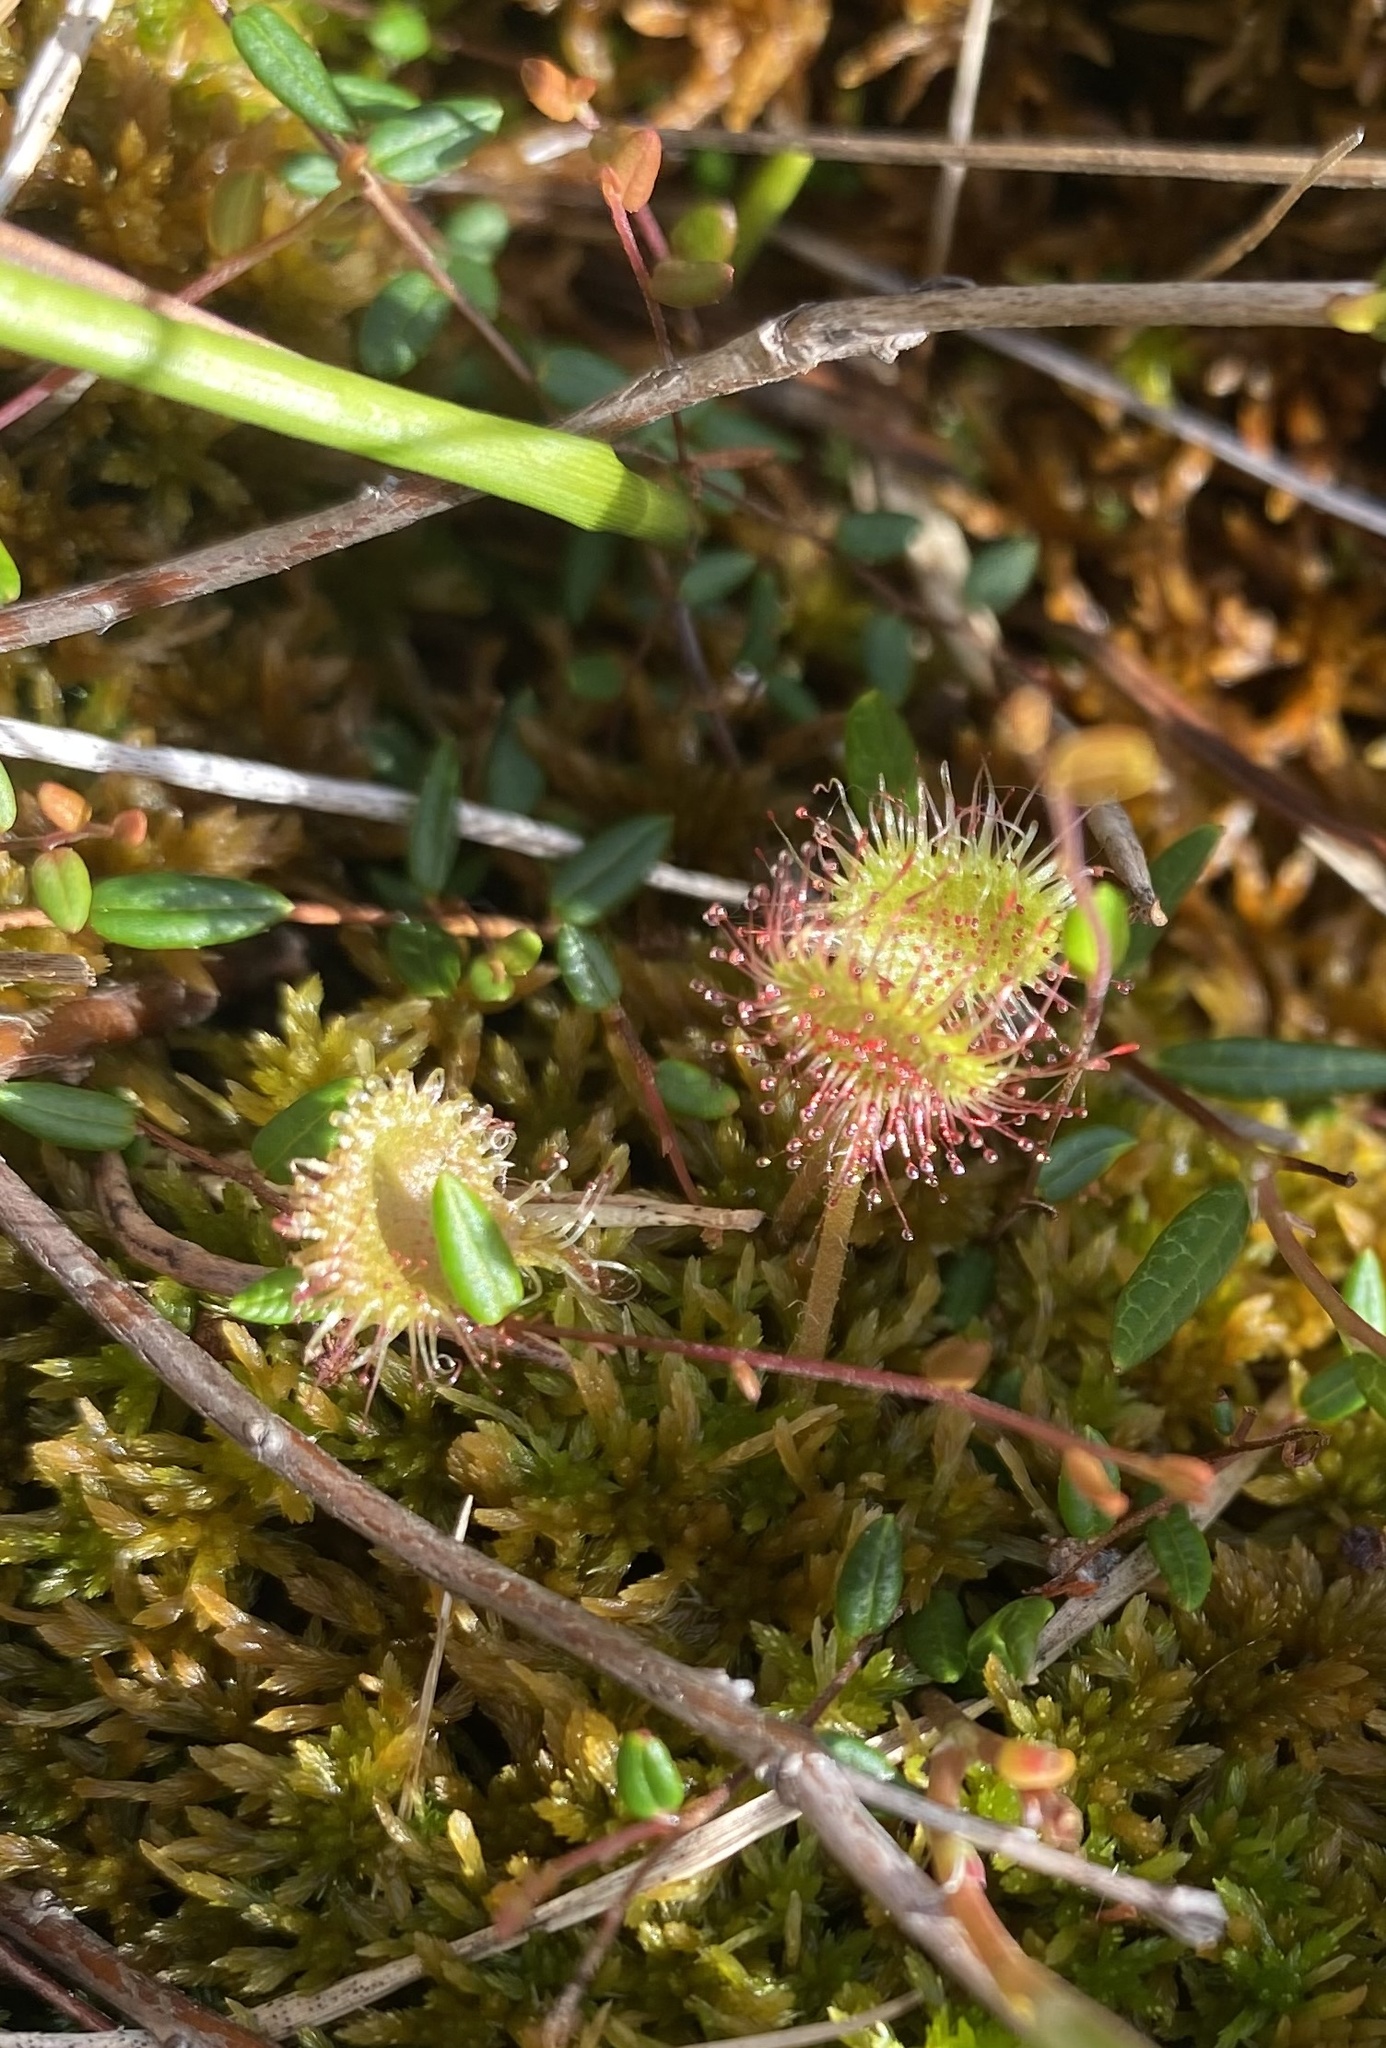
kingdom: Plantae
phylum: Tracheophyta
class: Magnoliopsida
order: Caryophyllales
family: Droseraceae
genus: Drosera
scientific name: Drosera rotundifolia
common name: Round-leaved sundew
